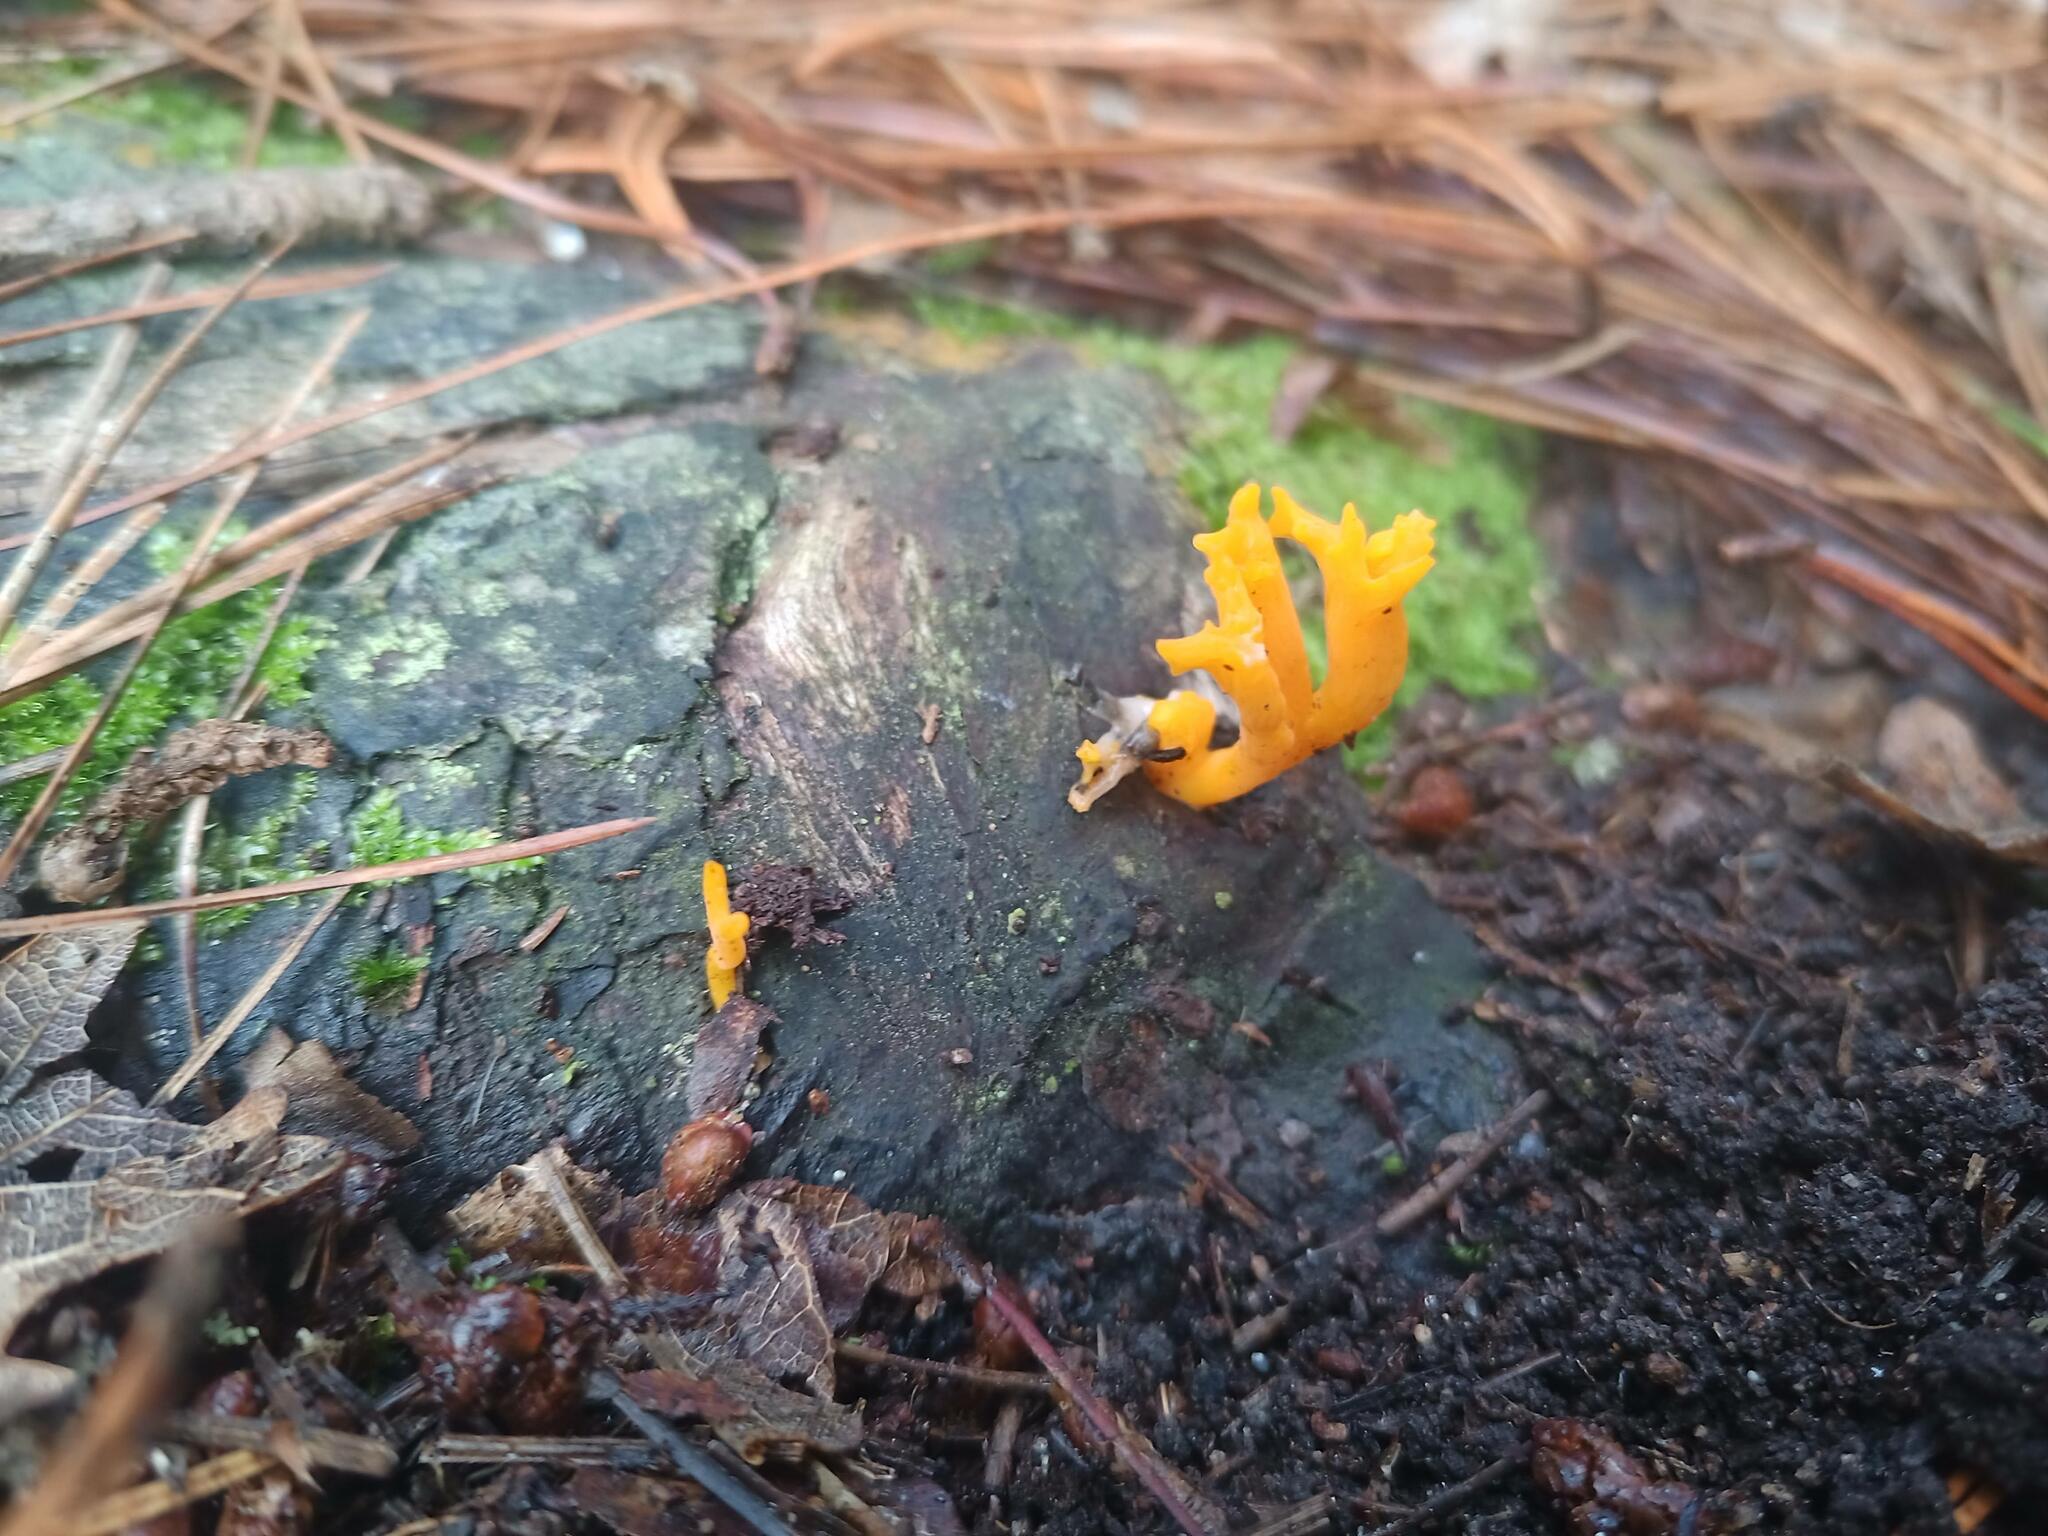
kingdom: Fungi
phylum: Basidiomycota
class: Dacrymycetes
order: Dacrymycetales
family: Dacrymycetaceae
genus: Calocera
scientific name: Calocera viscosa
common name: Yellow stagshorn
